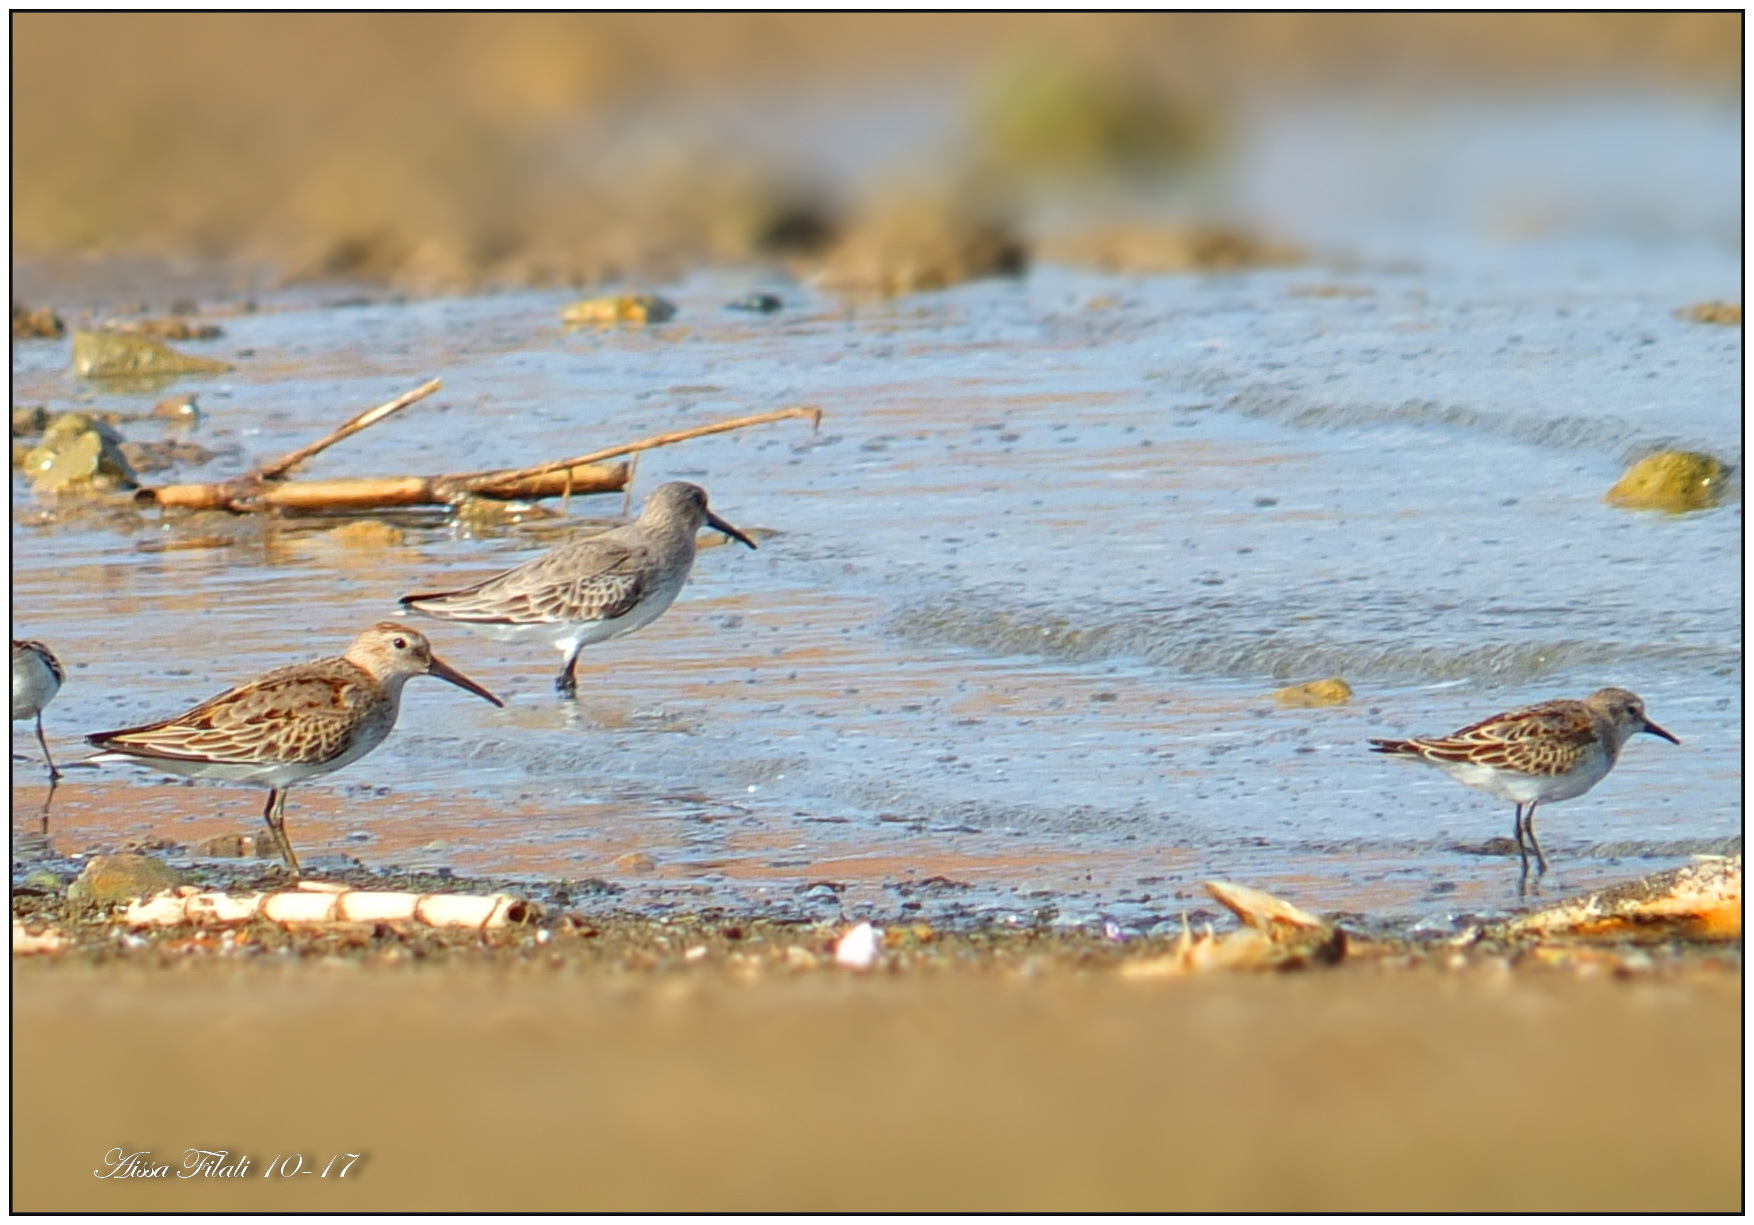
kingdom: Animalia
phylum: Chordata
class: Aves
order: Charadriiformes
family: Scolopacidae
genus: Calidris
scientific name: Calidris alpina
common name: Dunlin
